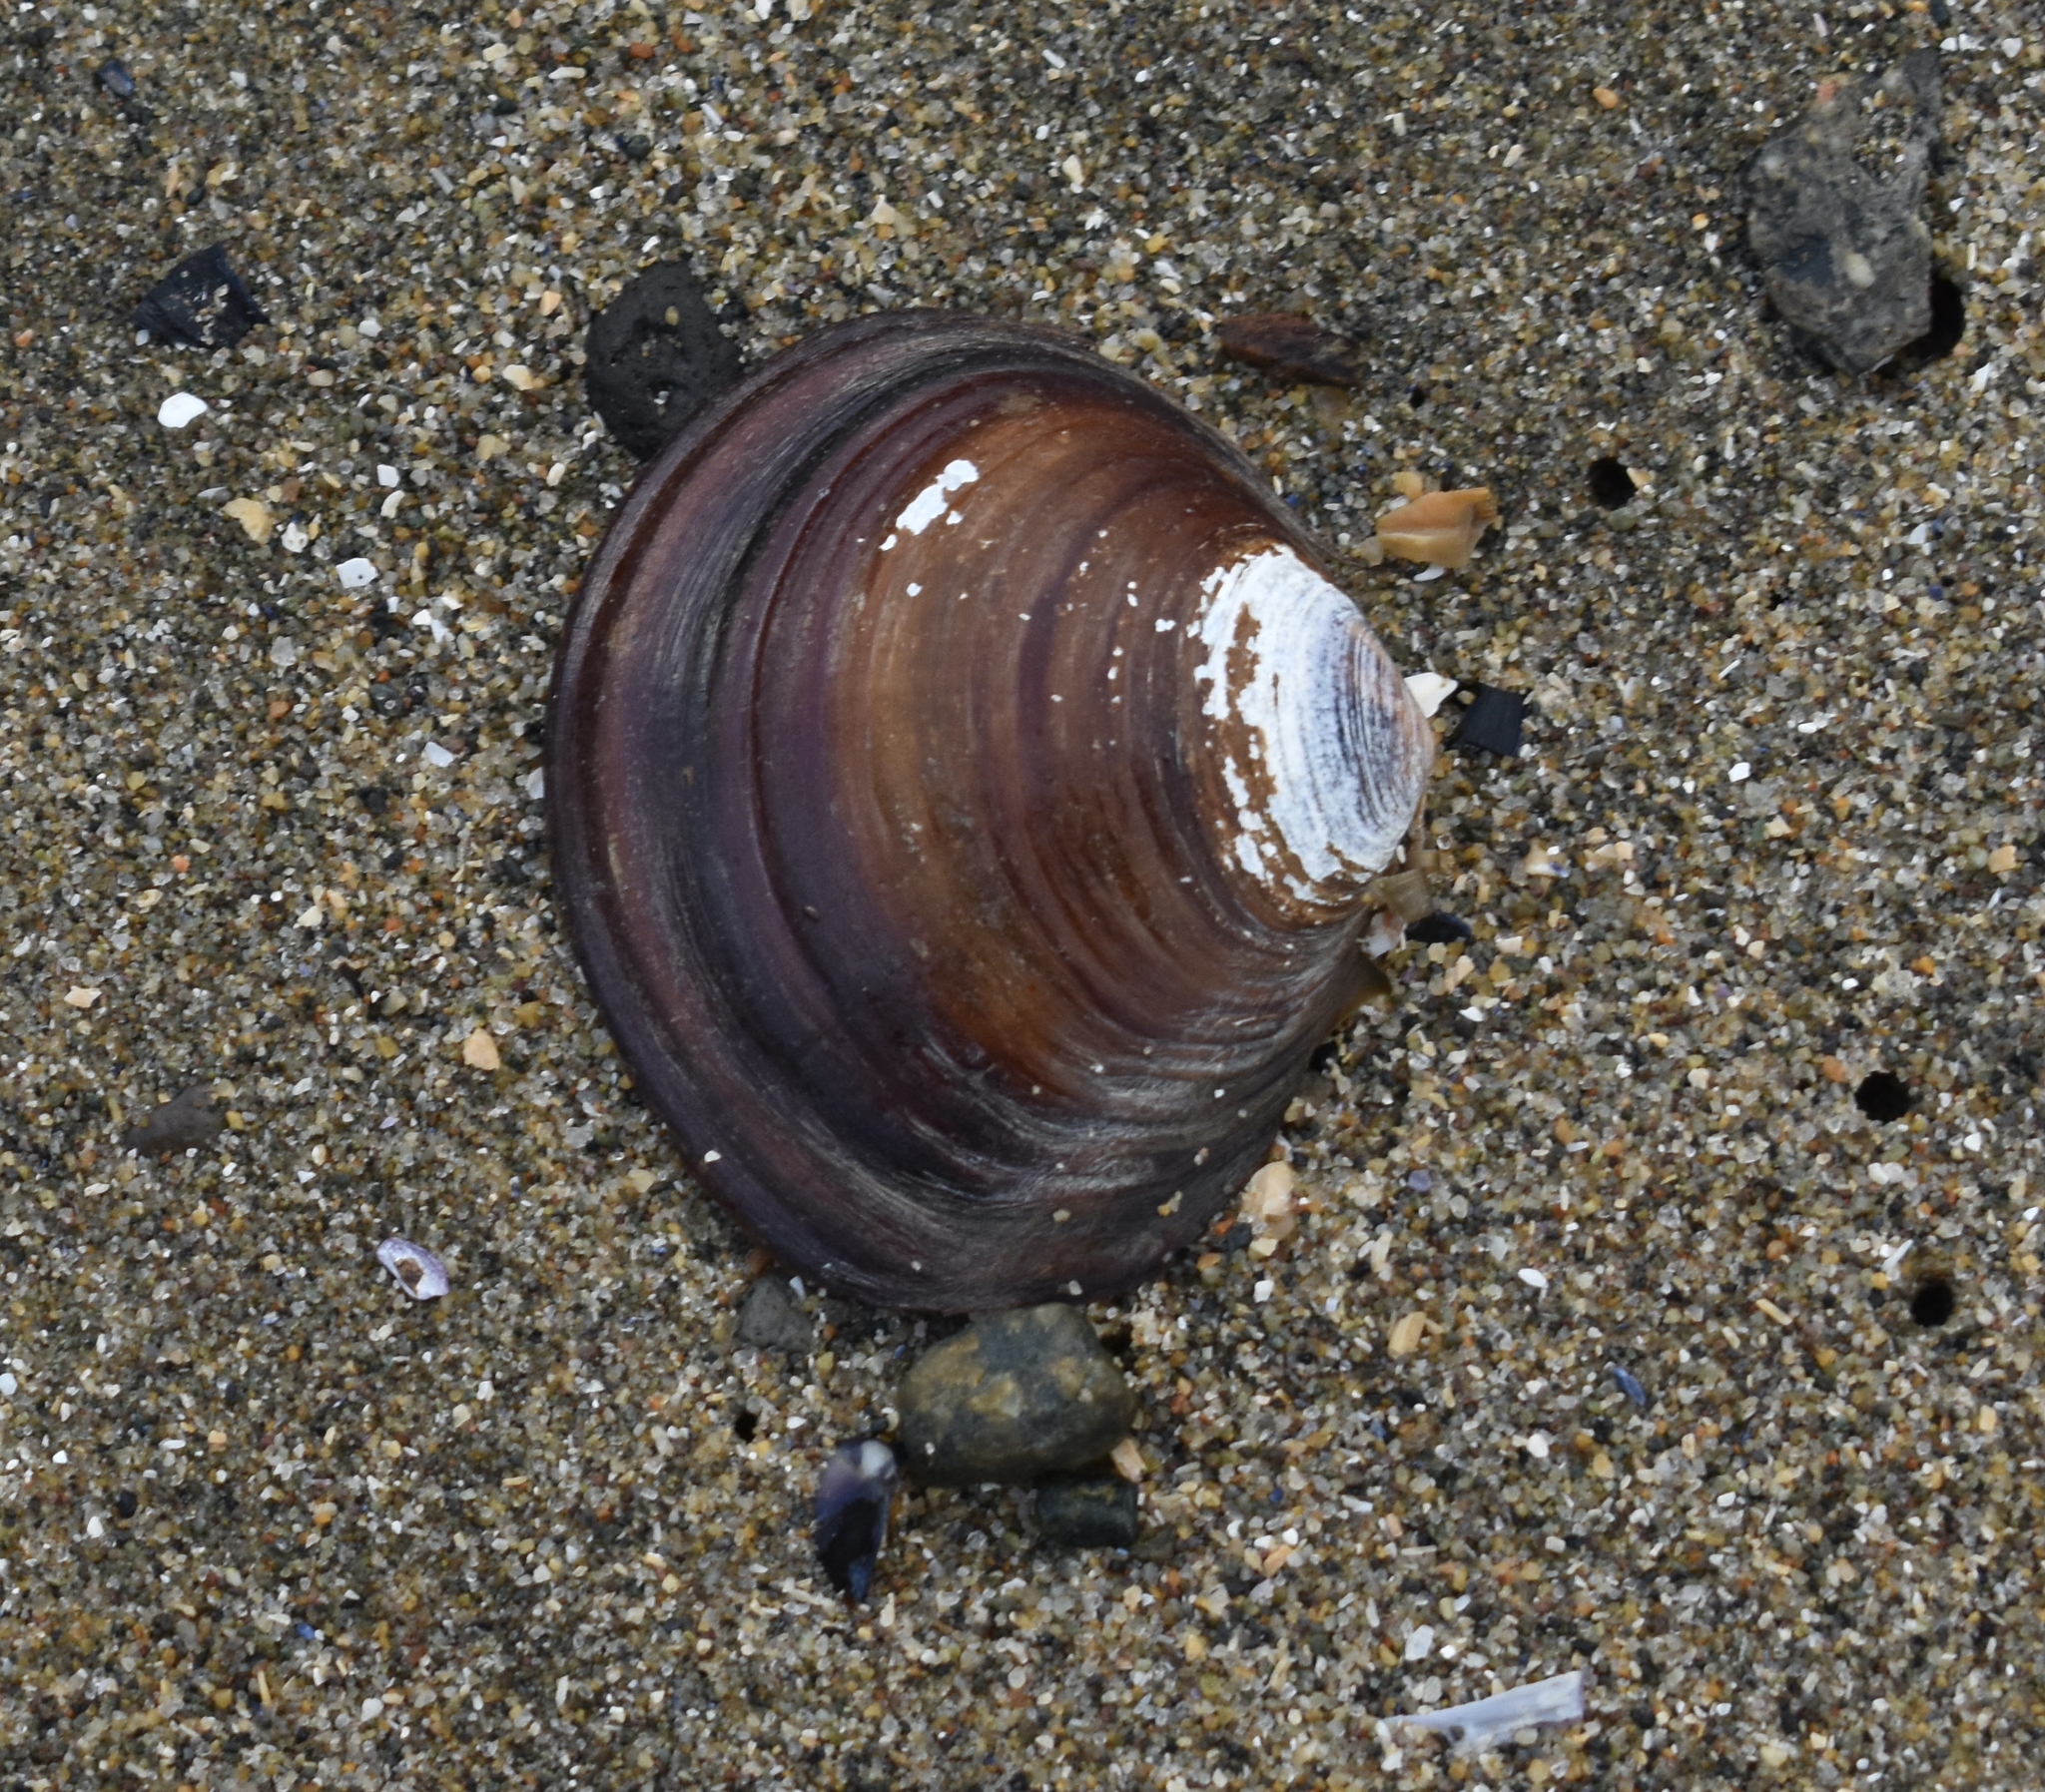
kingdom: Animalia
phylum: Mollusca
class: Bivalvia
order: Cardiida
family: Psammobiidae
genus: Nuttallia
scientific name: Nuttallia obscurata
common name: Purple mahogany-clam
